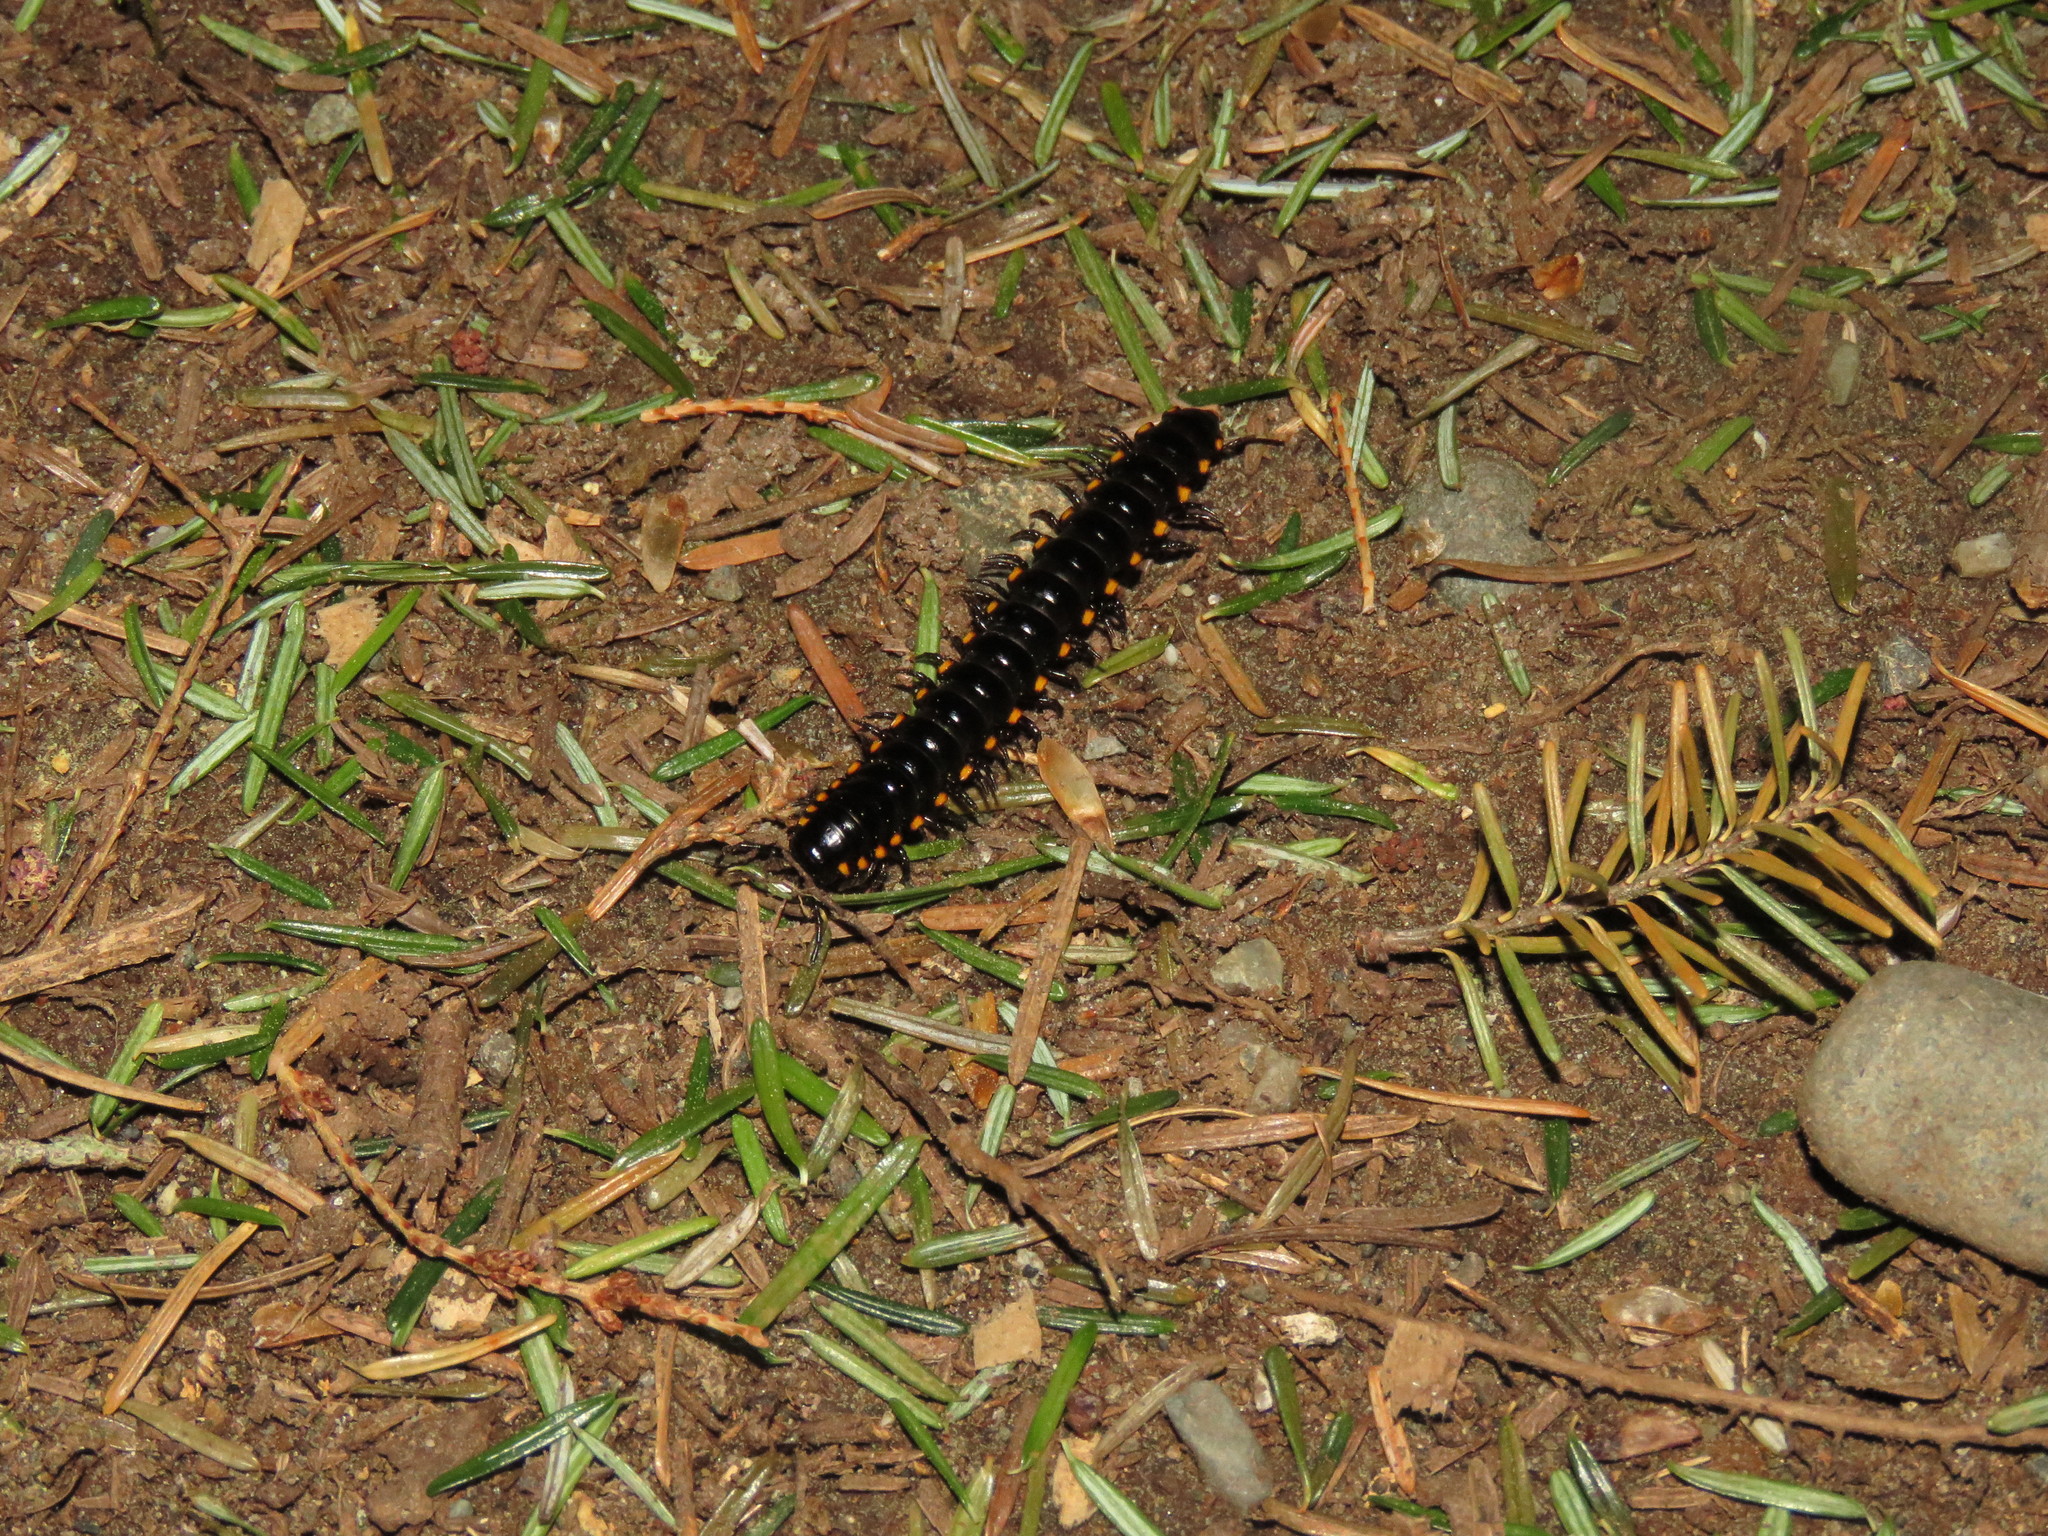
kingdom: Animalia
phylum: Arthropoda
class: Diplopoda
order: Polydesmida
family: Xystodesmidae
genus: Harpaphe
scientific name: Harpaphe haydeniana
